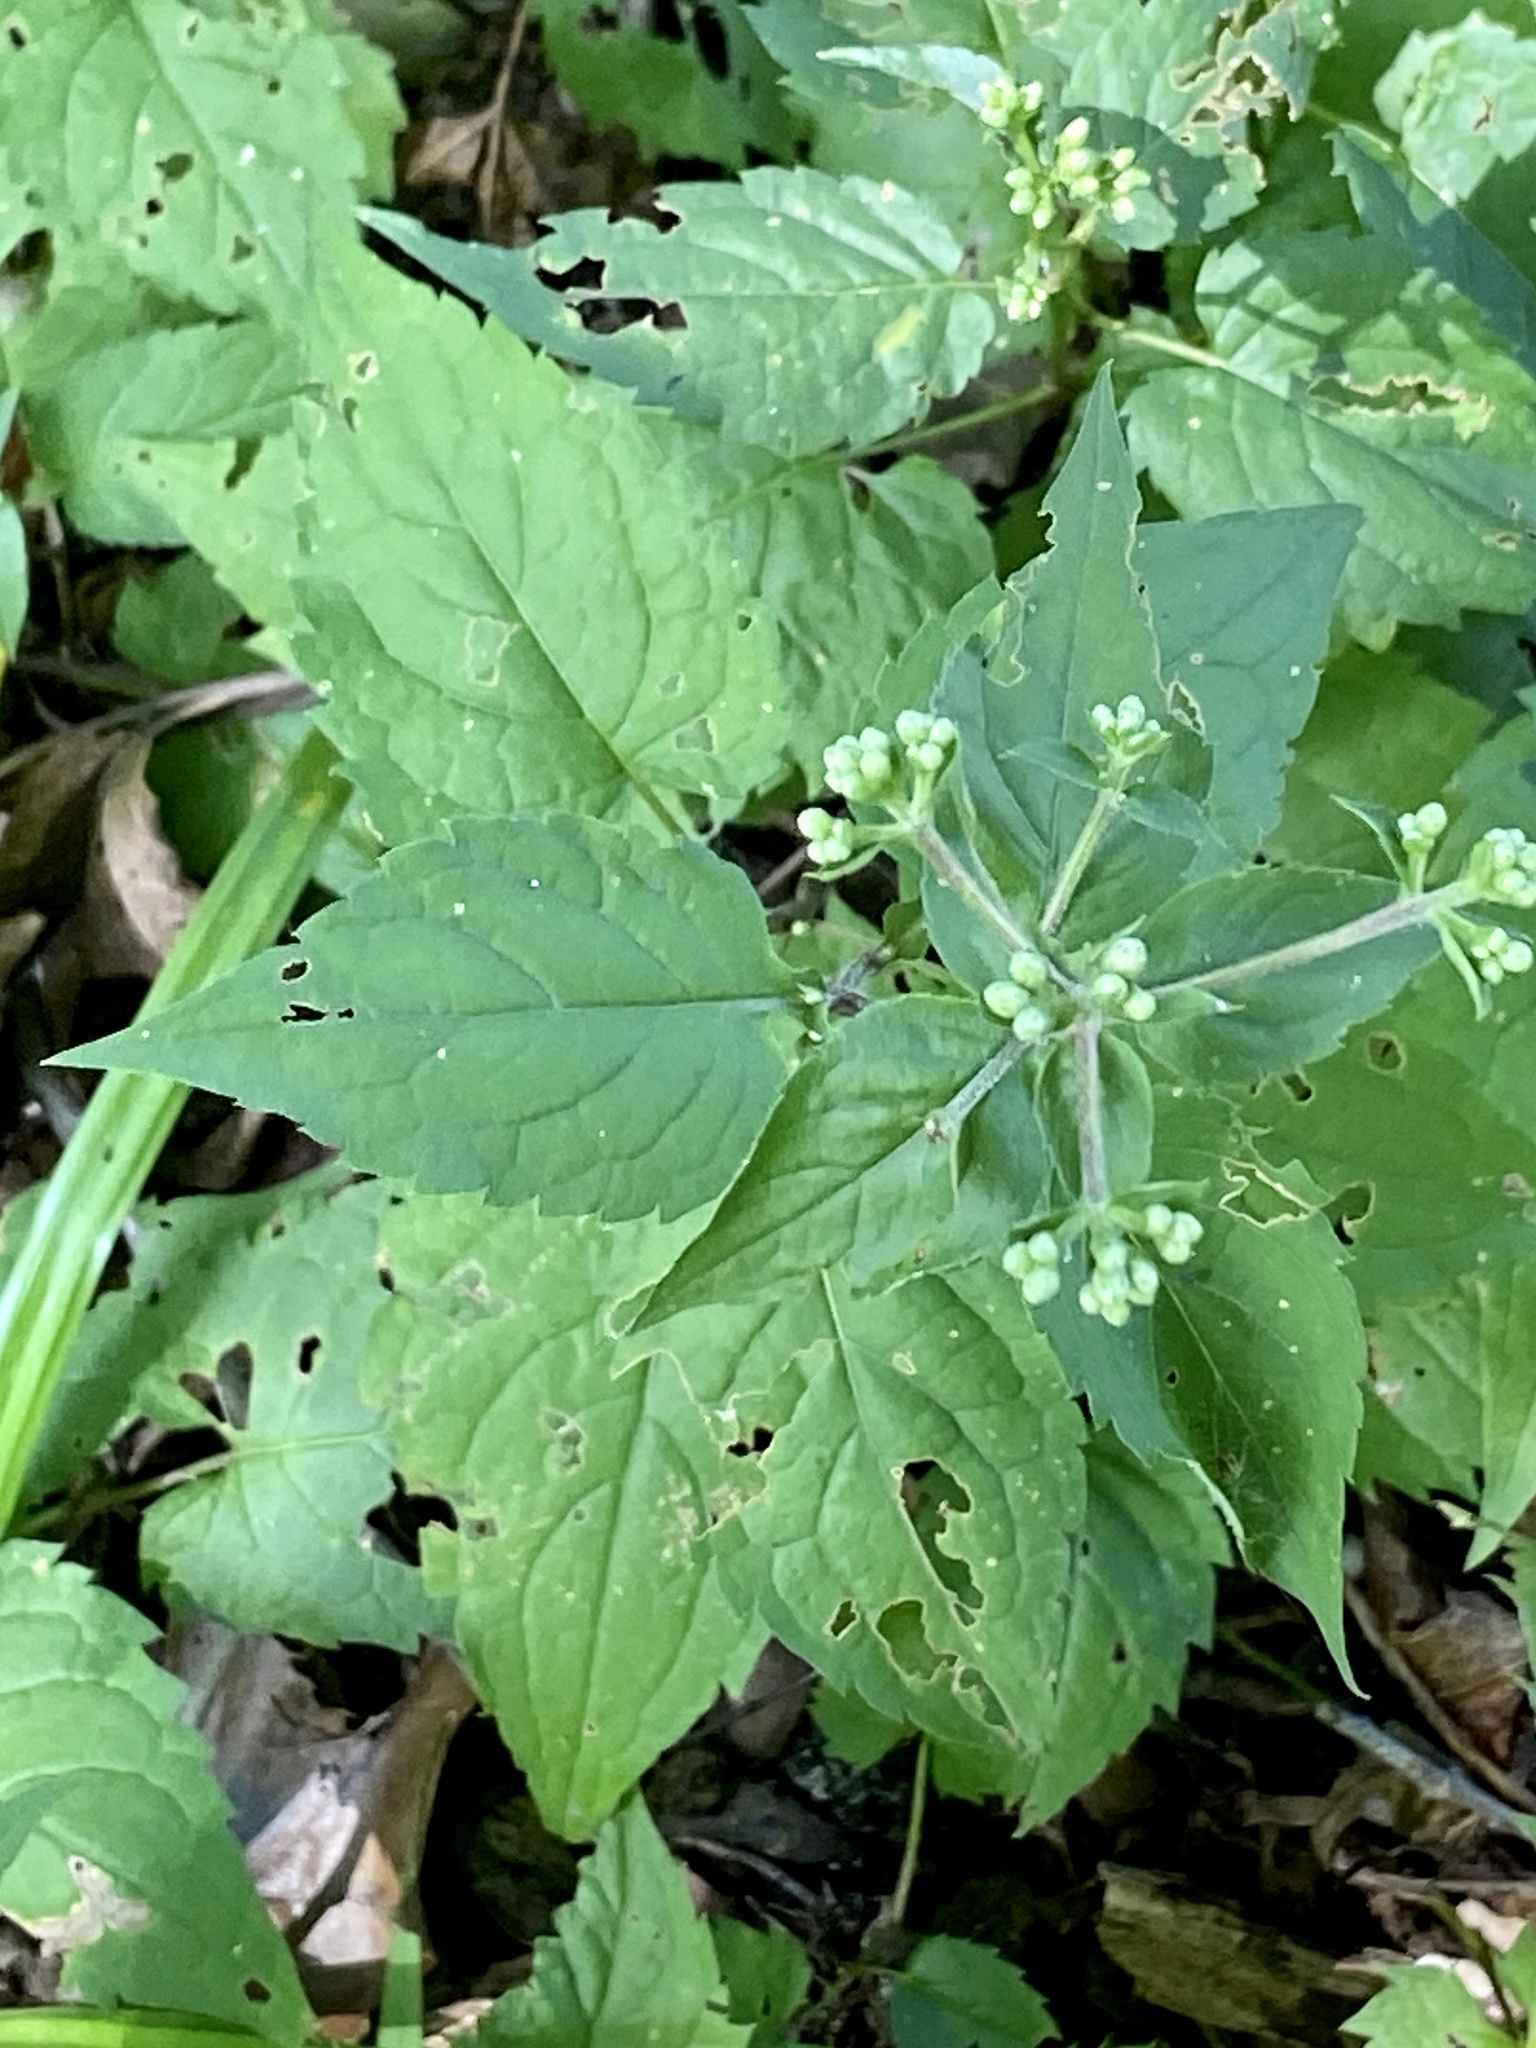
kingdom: Plantae
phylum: Tracheophyta
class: Magnoliopsida
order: Asterales
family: Asteraceae
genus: Eurybia
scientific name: Eurybia divaricata
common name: White wood aster
